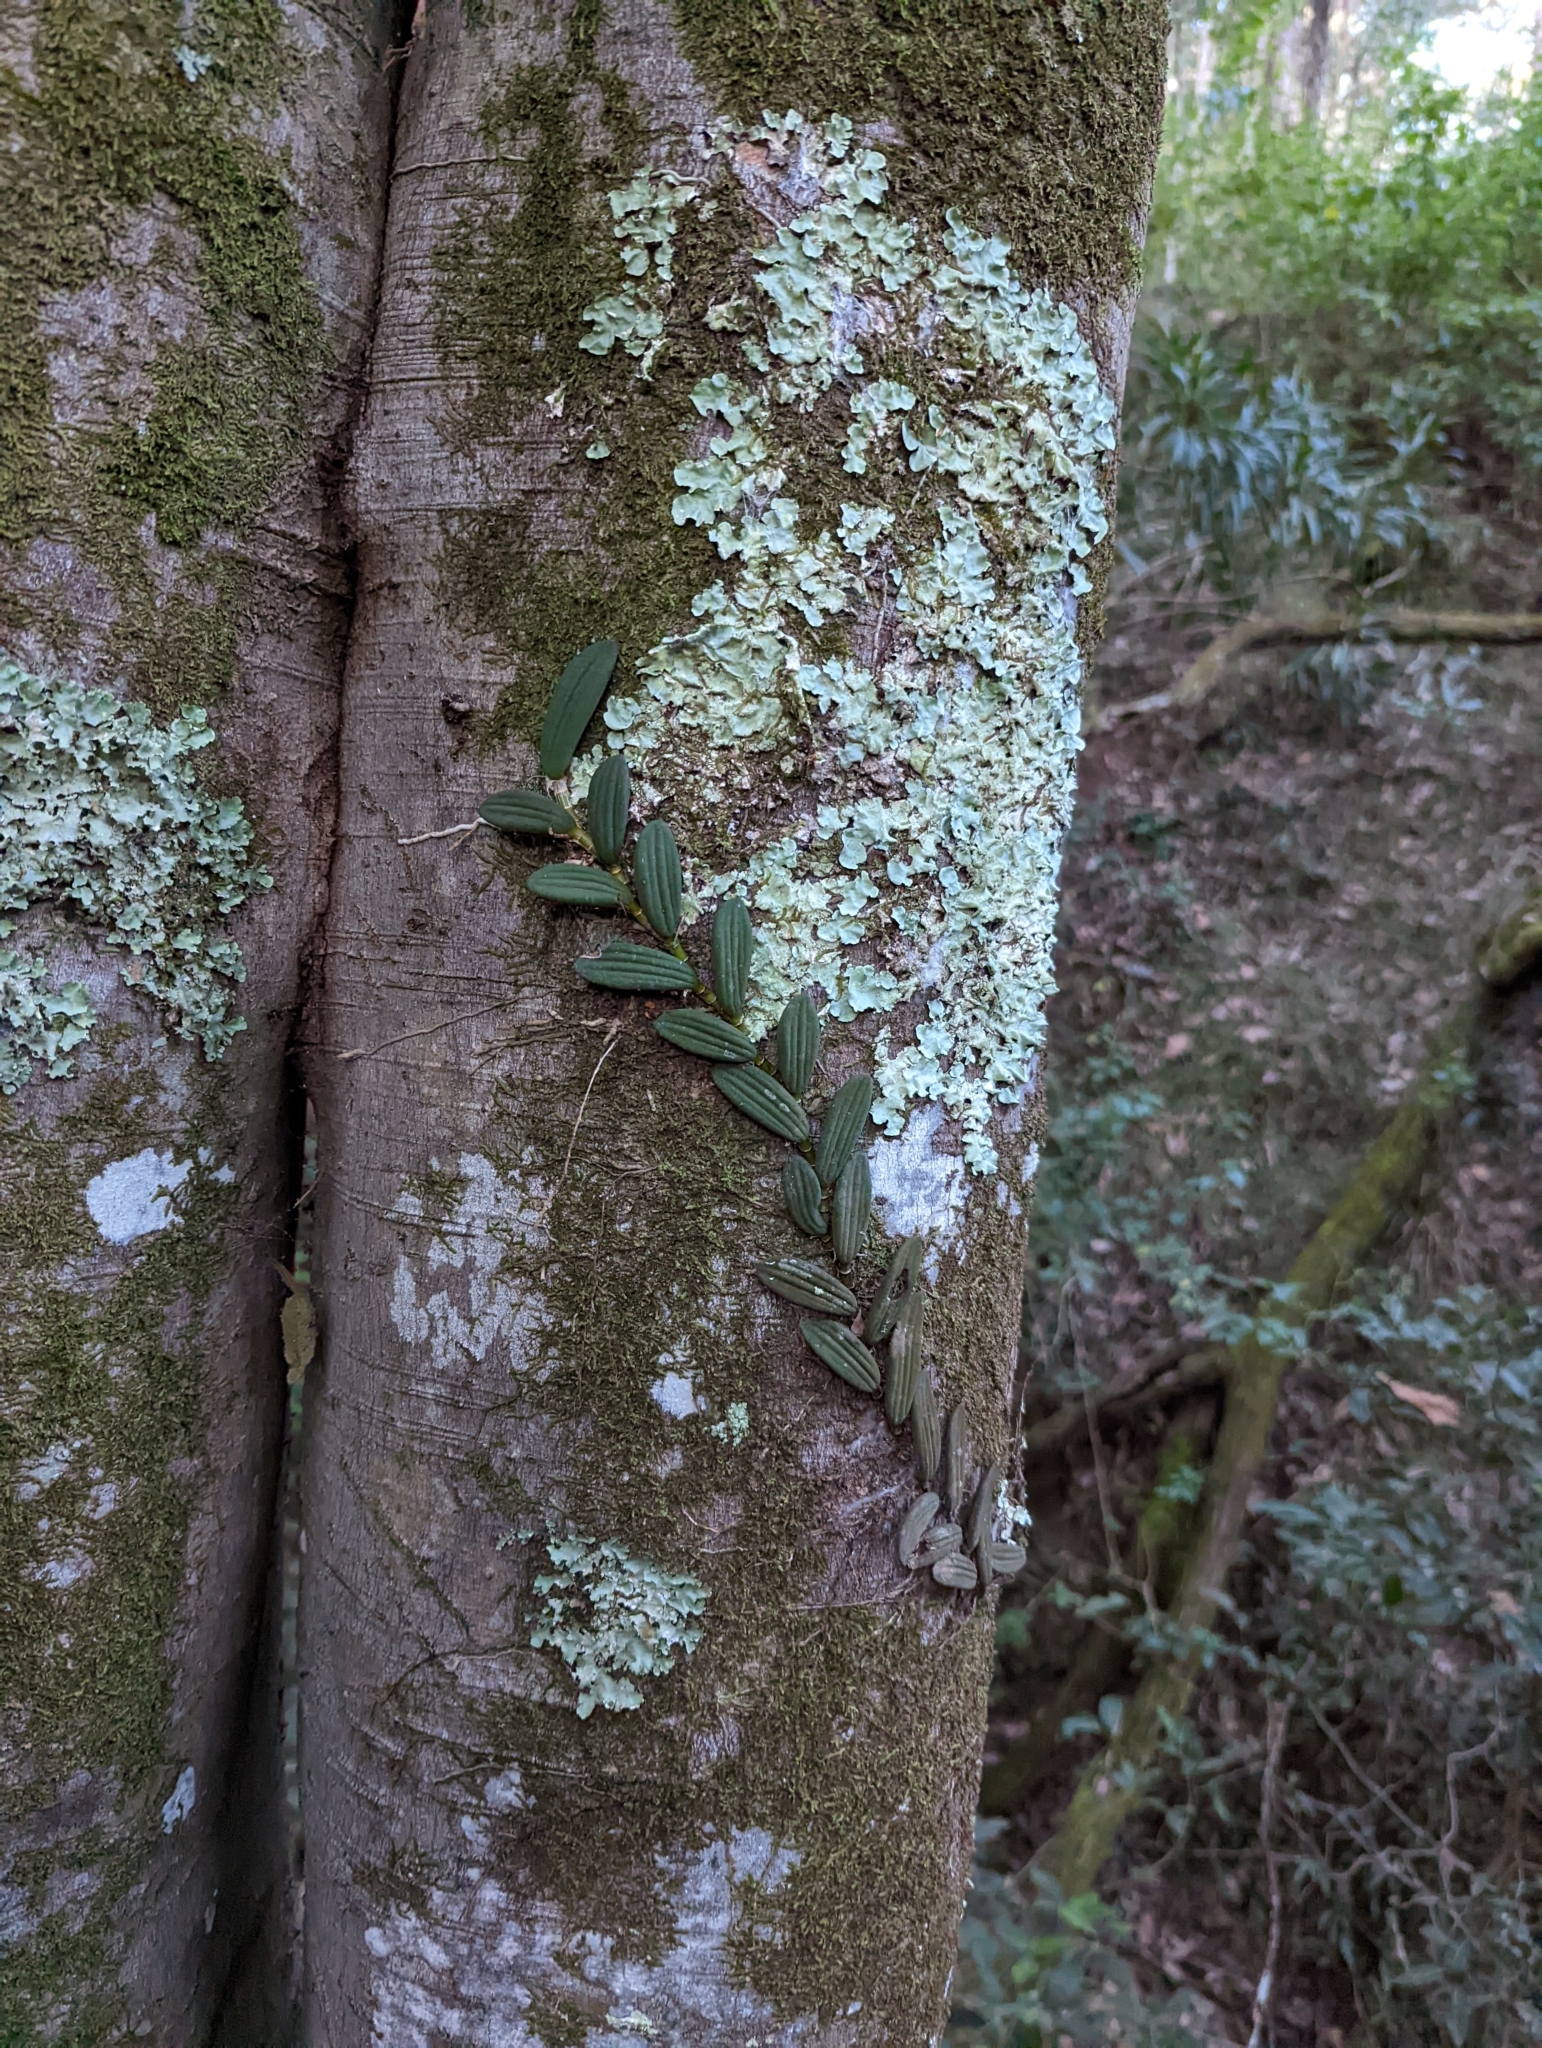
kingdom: Plantae
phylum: Tracheophyta
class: Liliopsida
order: Asparagales
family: Orchidaceae
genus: Dendrobium
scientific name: Dendrobium linguiforme
